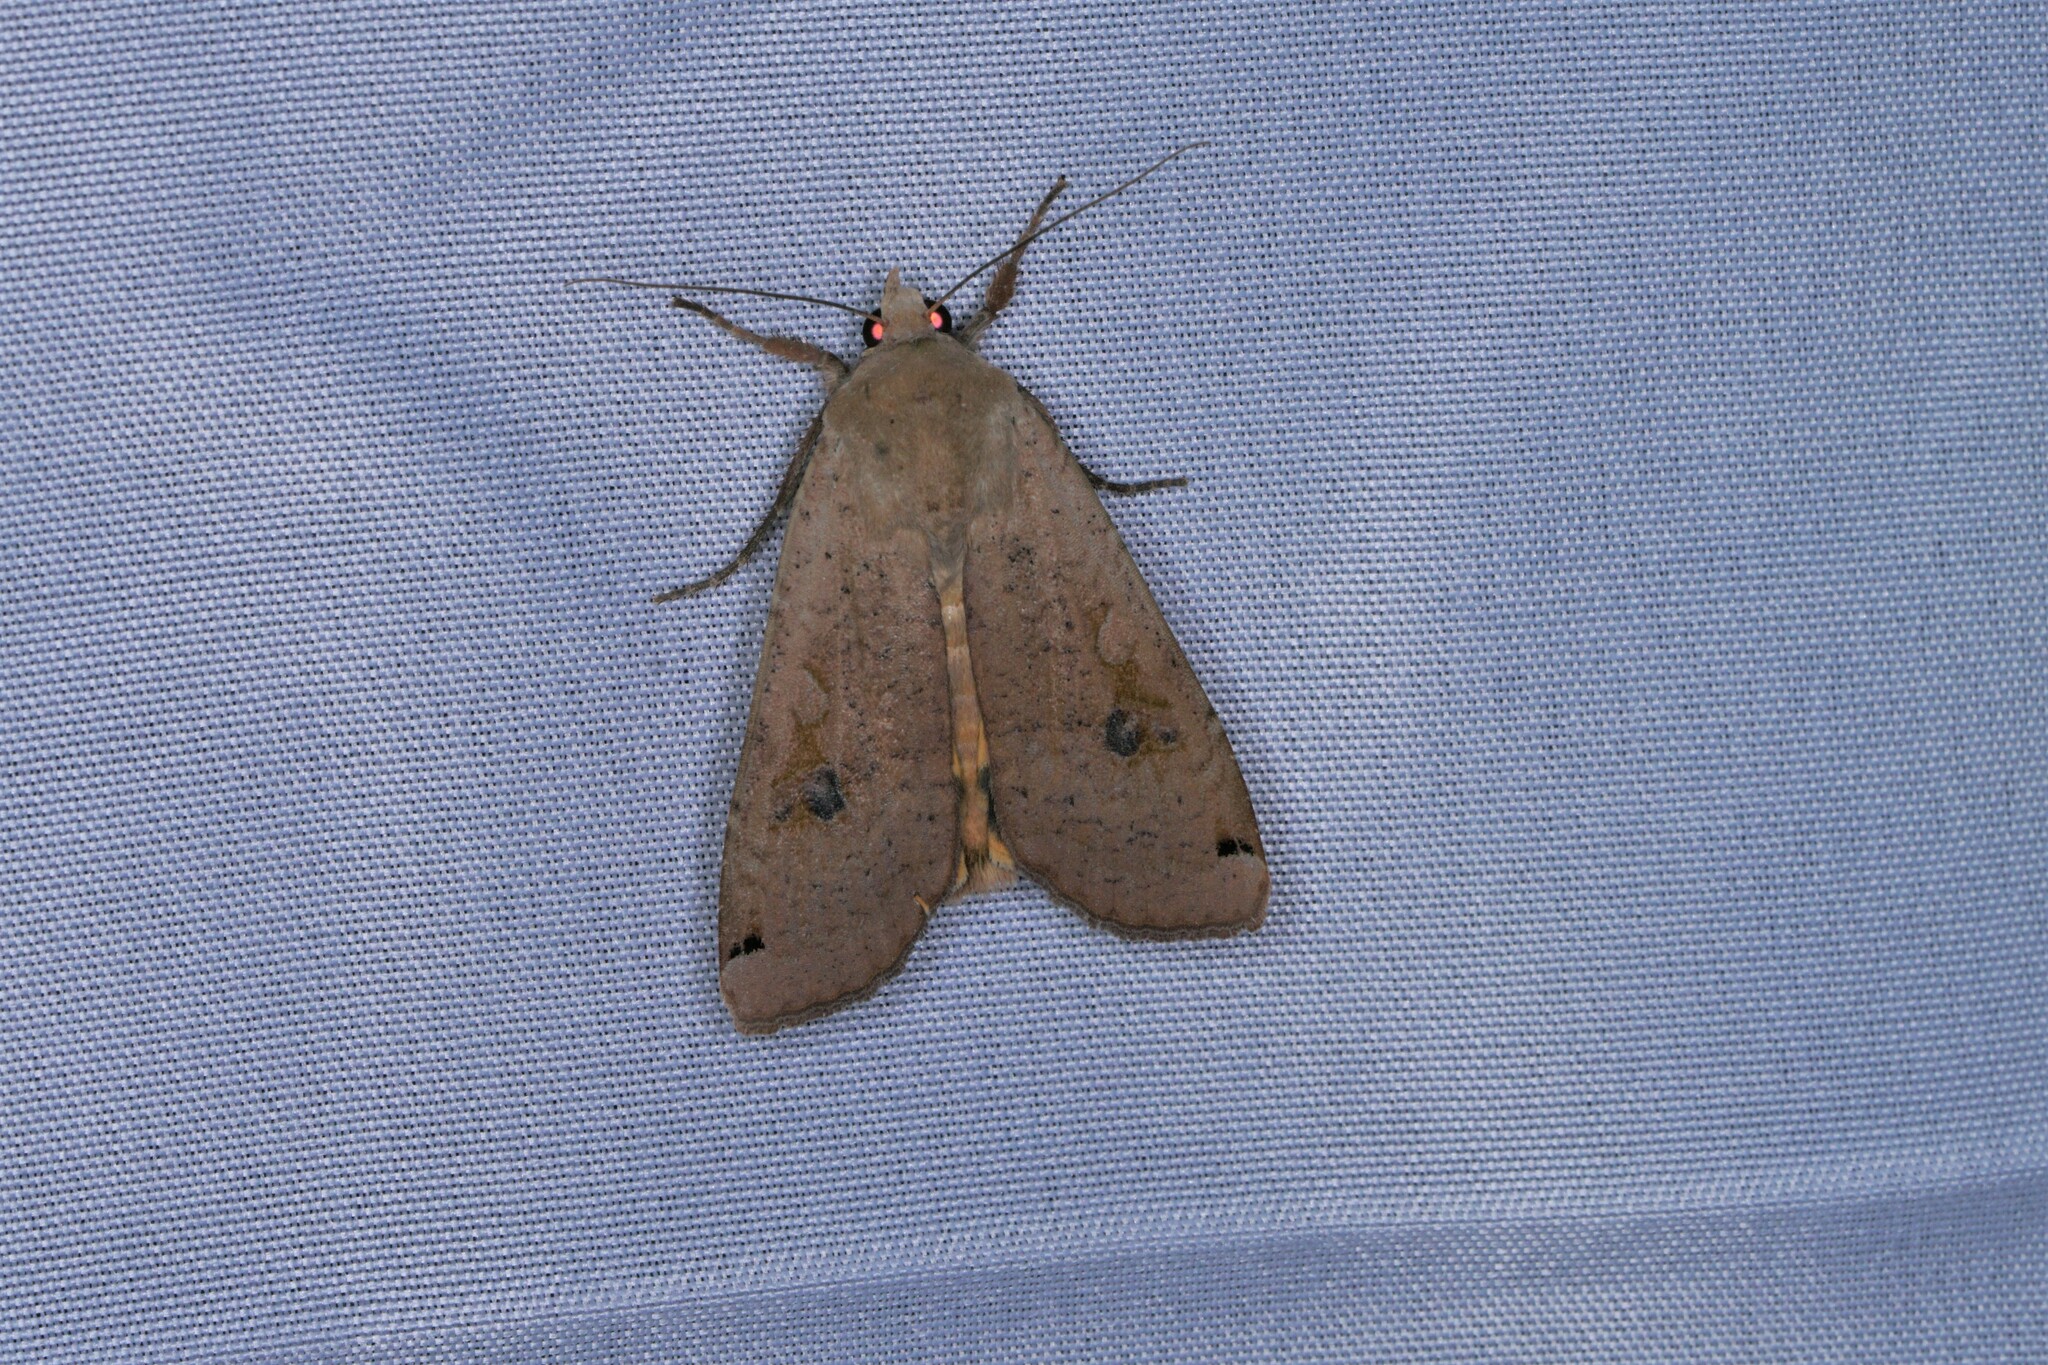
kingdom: Animalia
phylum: Arthropoda
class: Insecta
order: Lepidoptera
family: Noctuidae
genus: Noctua
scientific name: Noctua pronuba
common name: Large yellow underwing
